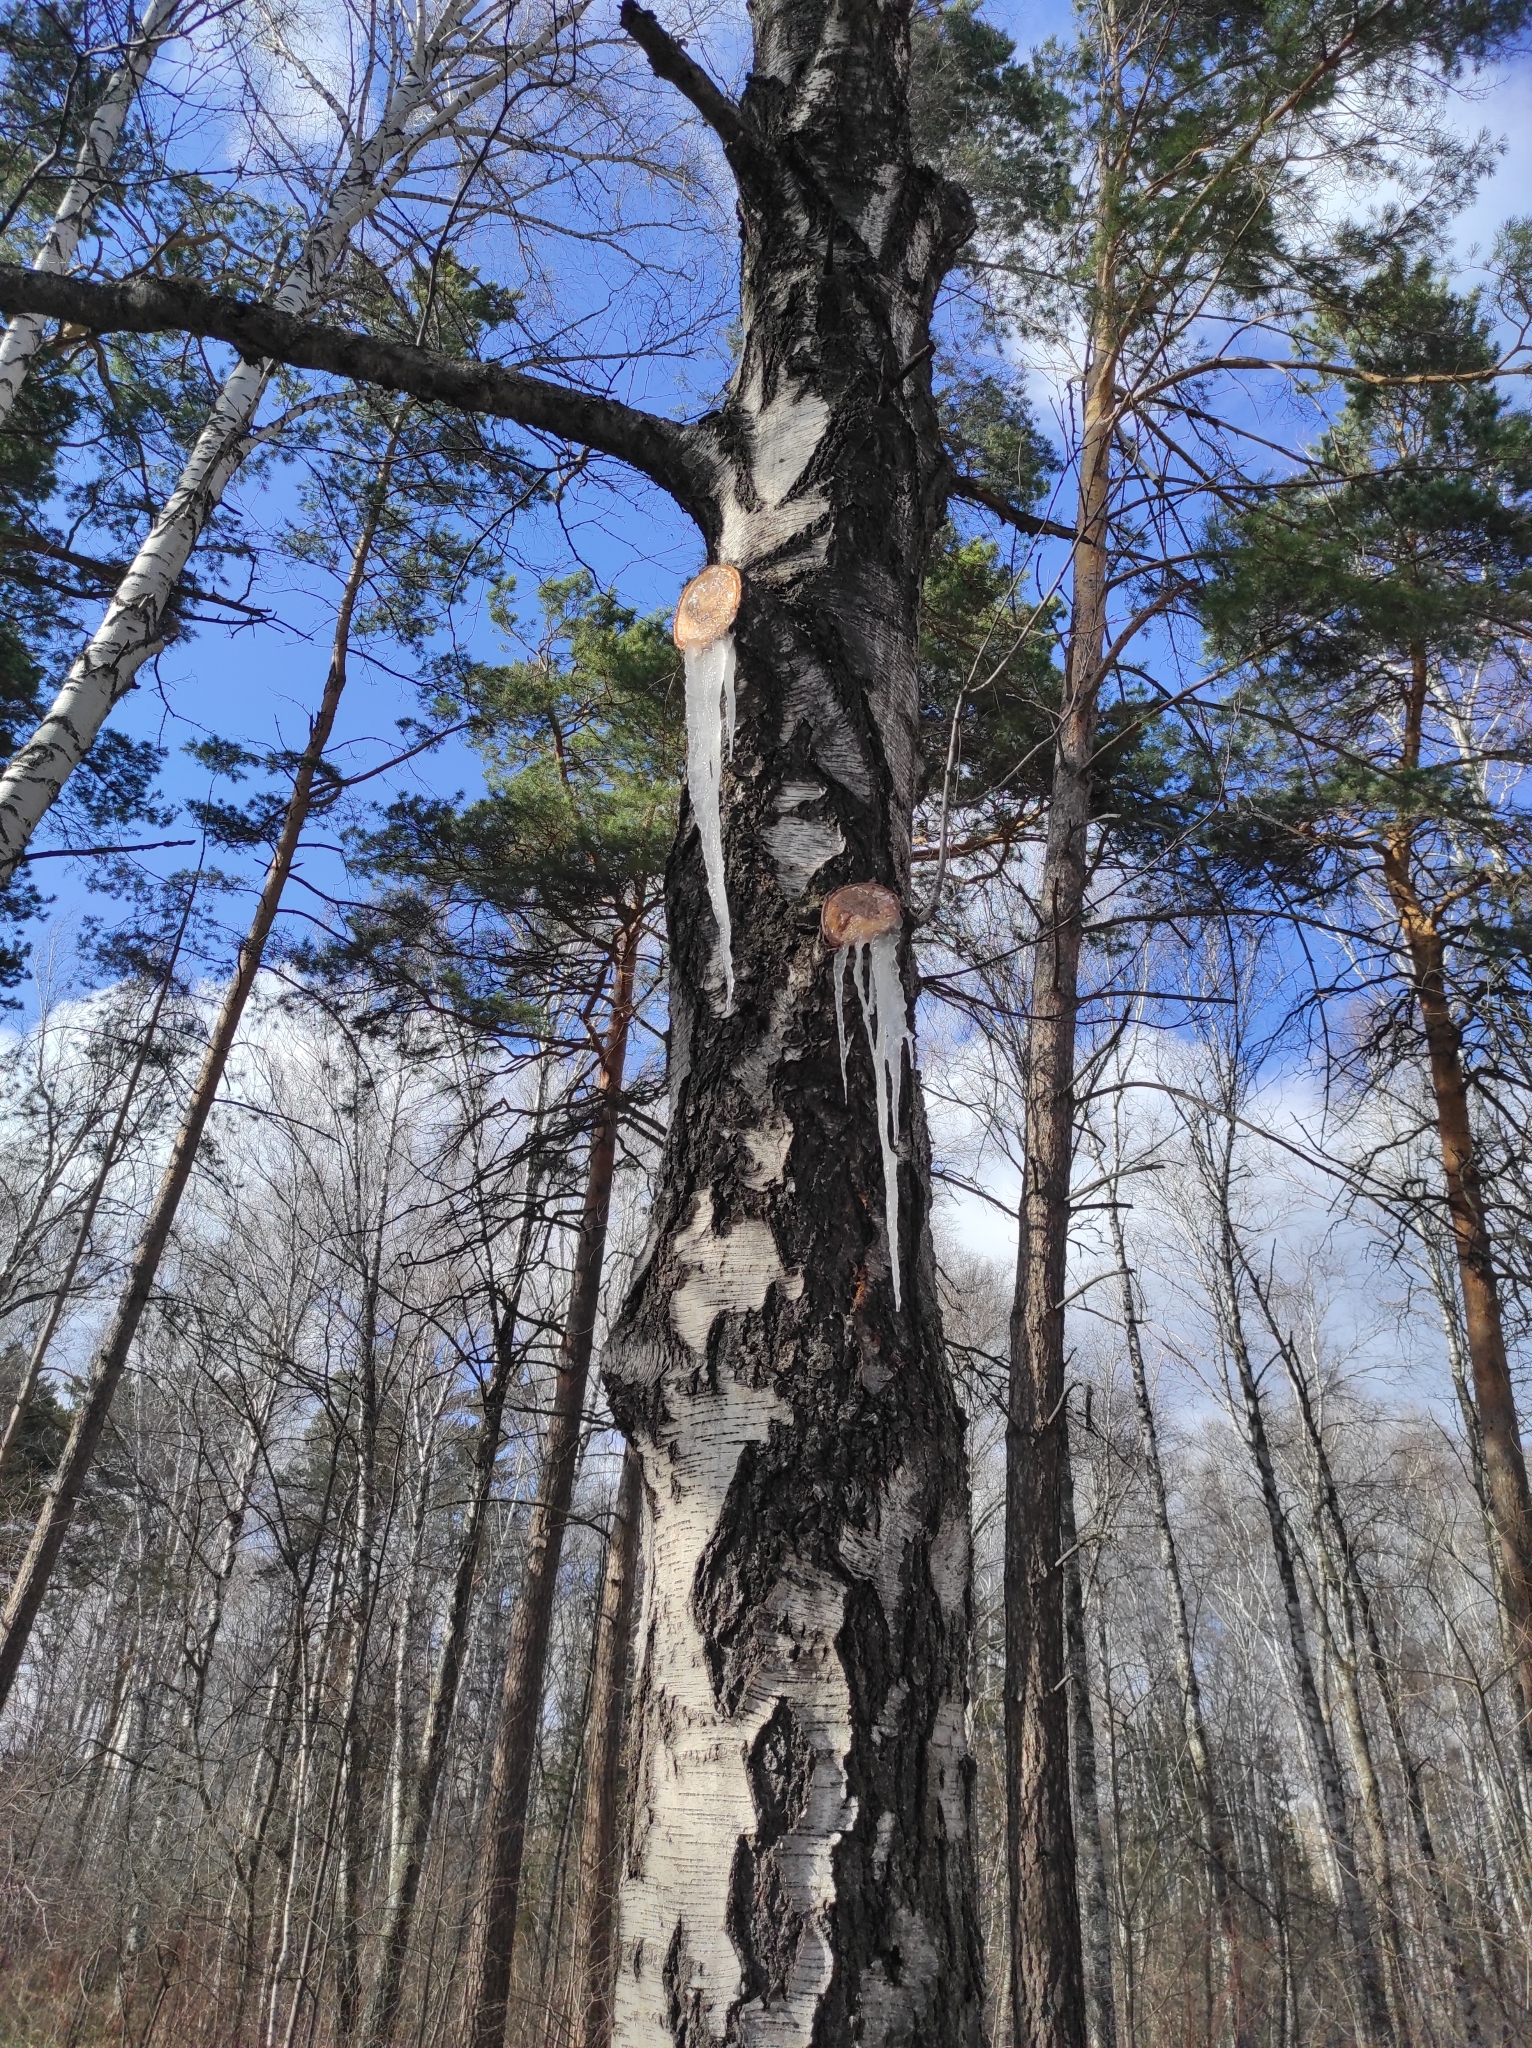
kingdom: Plantae
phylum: Tracheophyta
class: Pinopsida
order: Pinales
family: Pinaceae
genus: Pinus
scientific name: Pinus sylvestris
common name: Scots pine
